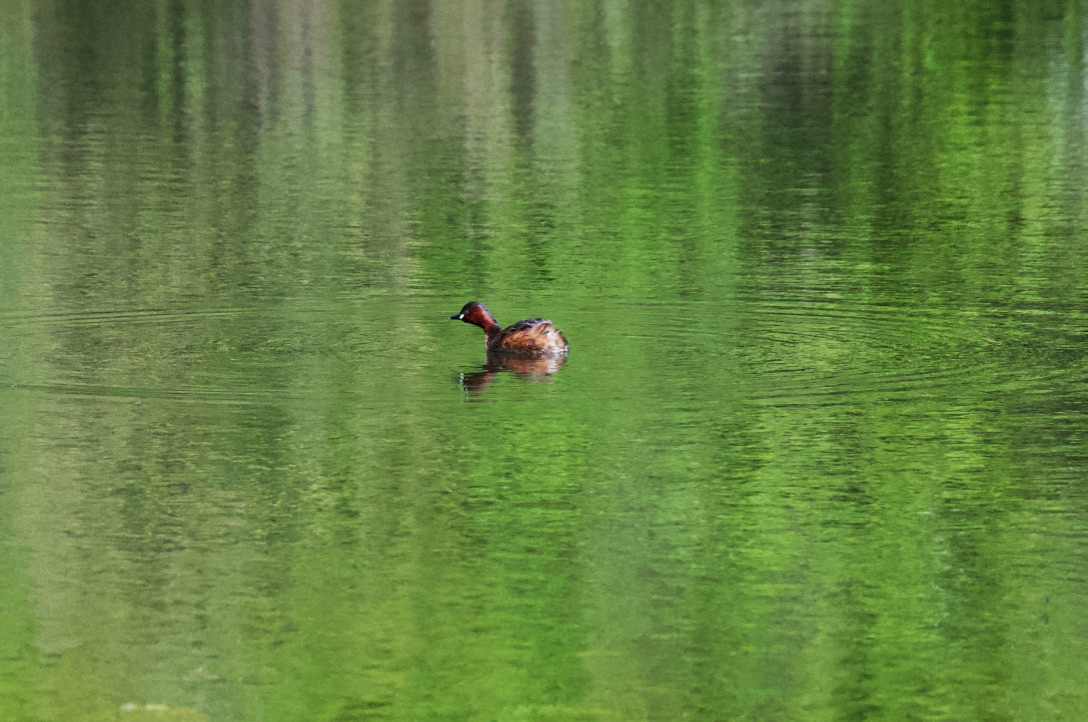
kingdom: Animalia
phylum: Chordata
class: Aves
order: Podicipediformes
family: Podicipedidae
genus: Tachybaptus
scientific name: Tachybaptus ruficollis
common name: Little grebe
